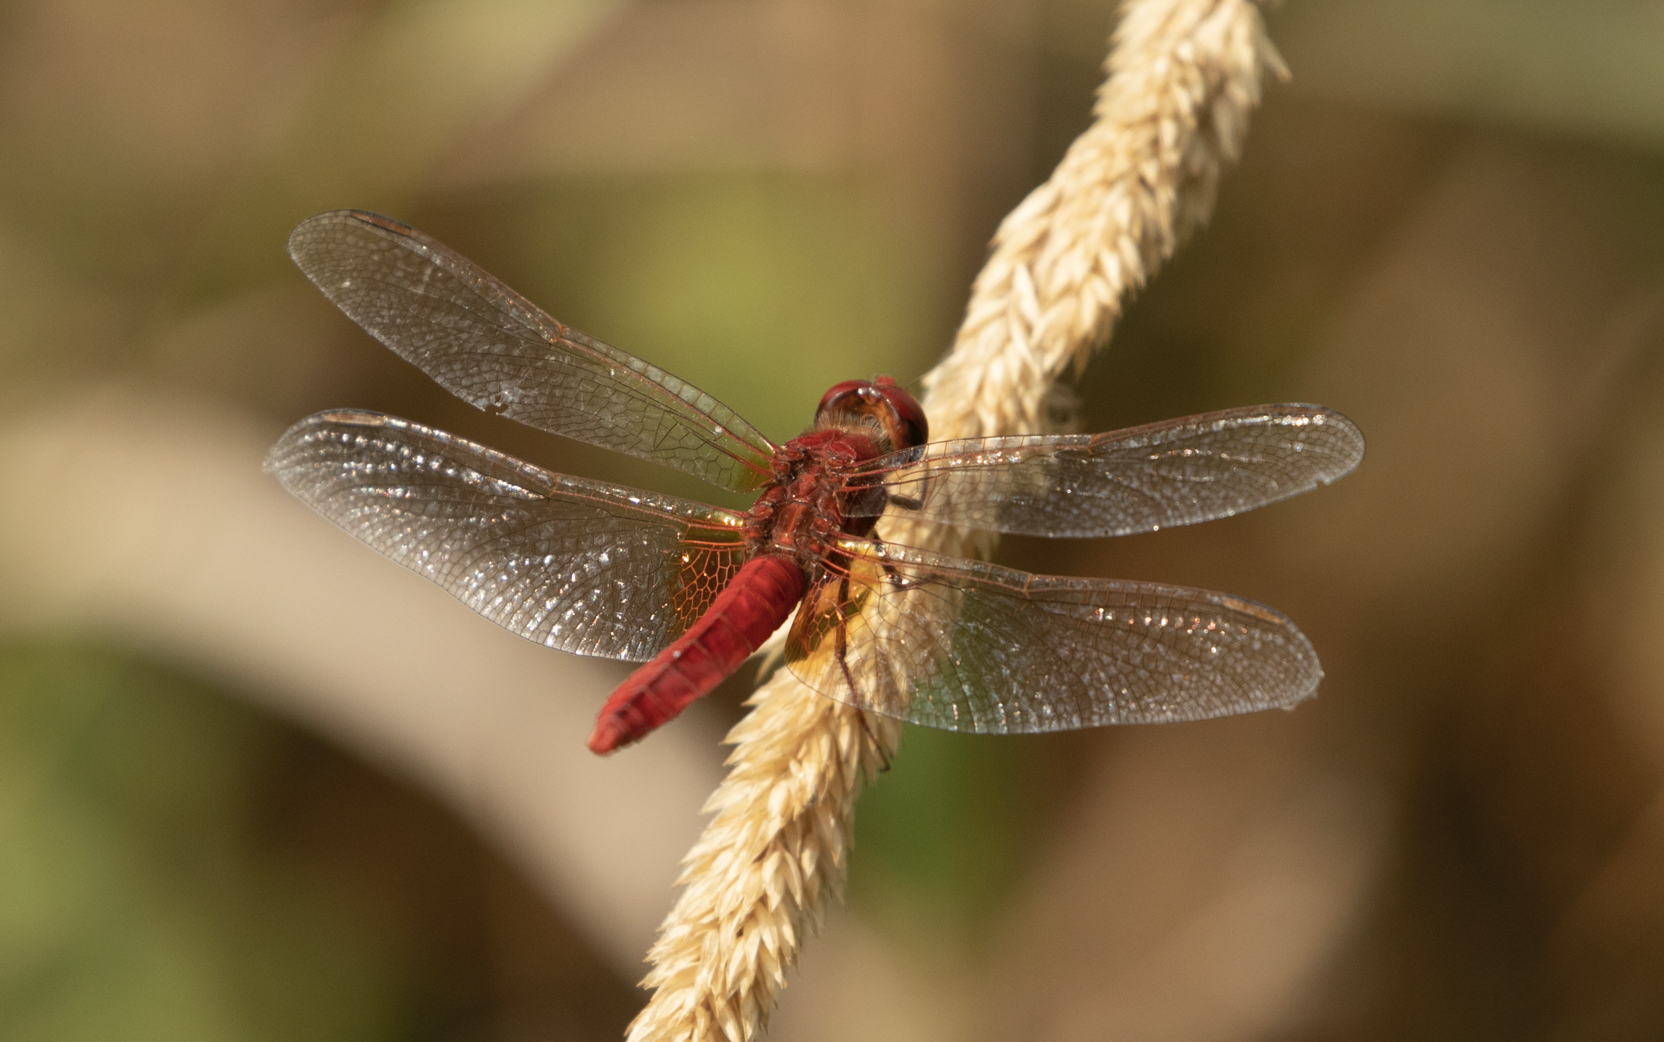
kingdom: Animalia
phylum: Arthropoda
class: Insecta
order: Odonata
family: Libellulidae
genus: Crocothemis
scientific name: Crocothemis erythraea
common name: Scarlet dragonfly
